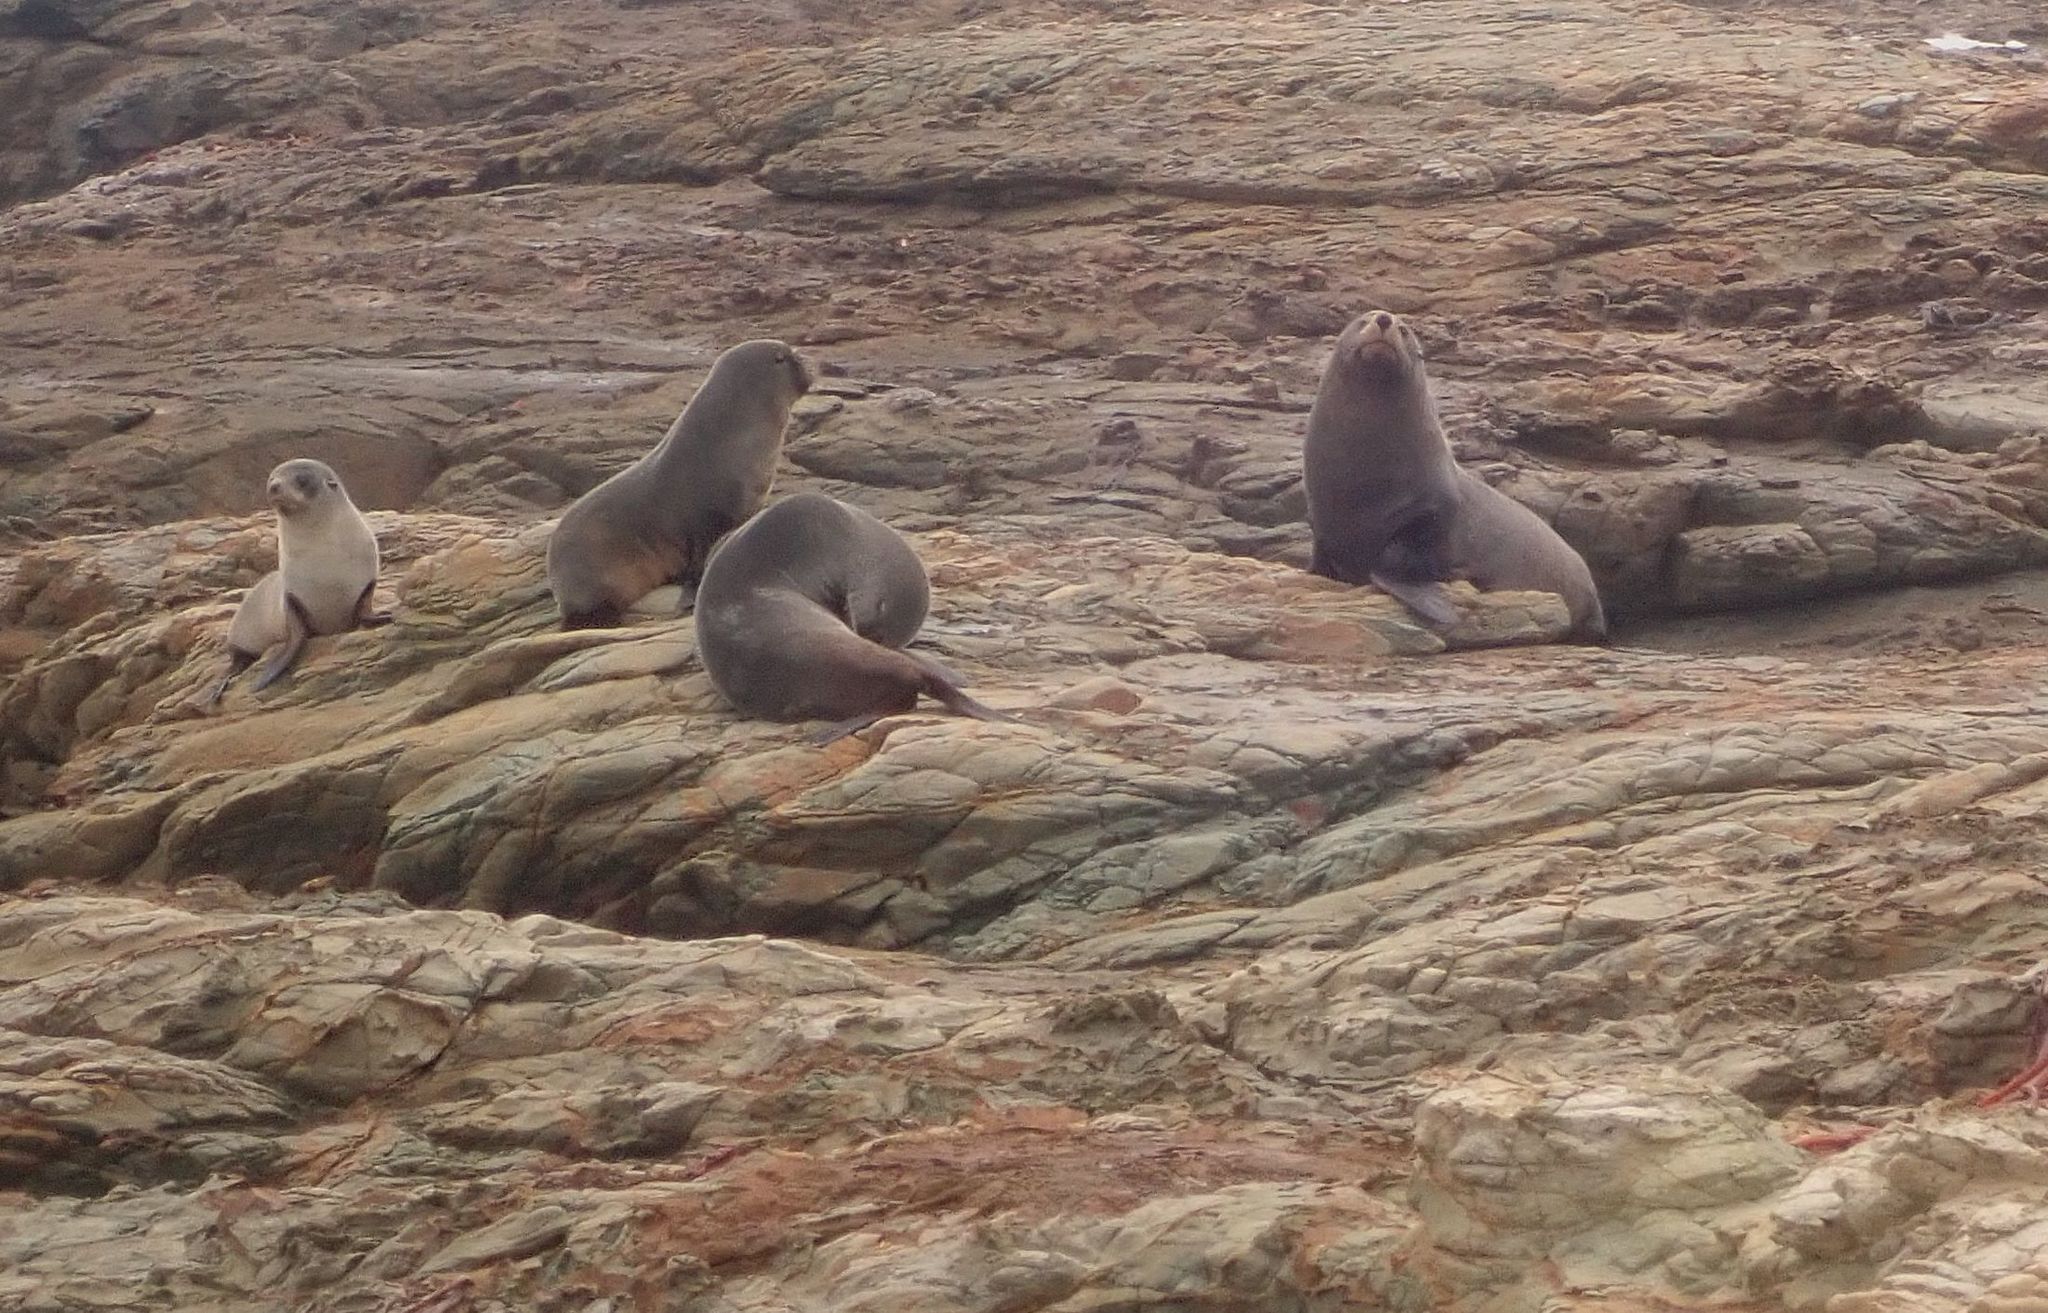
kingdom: Animalia
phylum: Chordata
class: Mammalia
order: Carnivora
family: Otariidae
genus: Arctocephalus
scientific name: Arctocephalus forsteri
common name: New zealand fur seal
